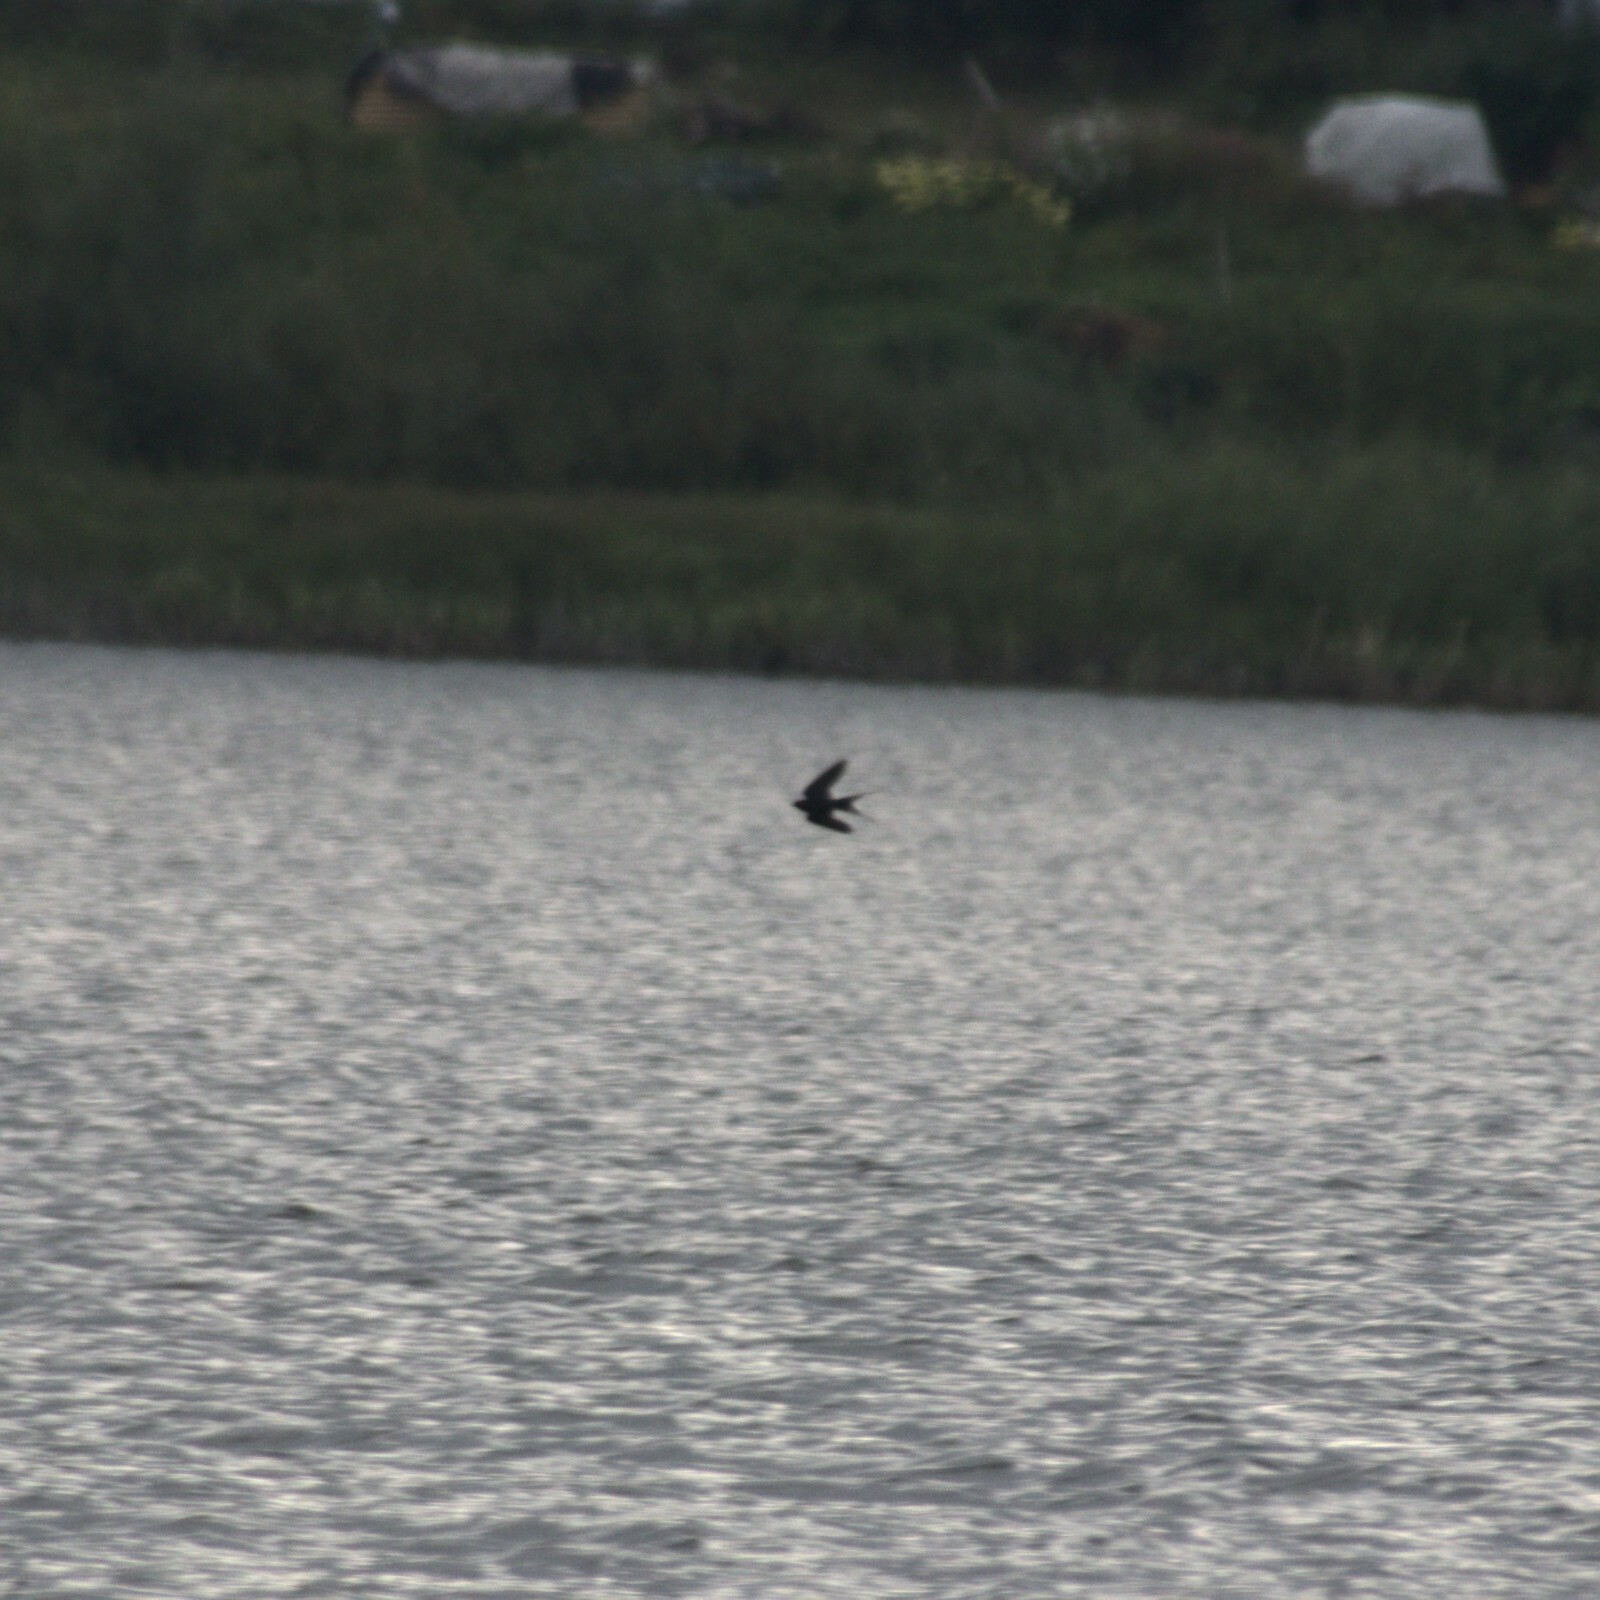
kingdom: Animalia
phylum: Chordata
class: Aves
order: Passeriformes
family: Hirundinidae
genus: Hirundo
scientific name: Hirundo rustica
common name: Barn swallow
